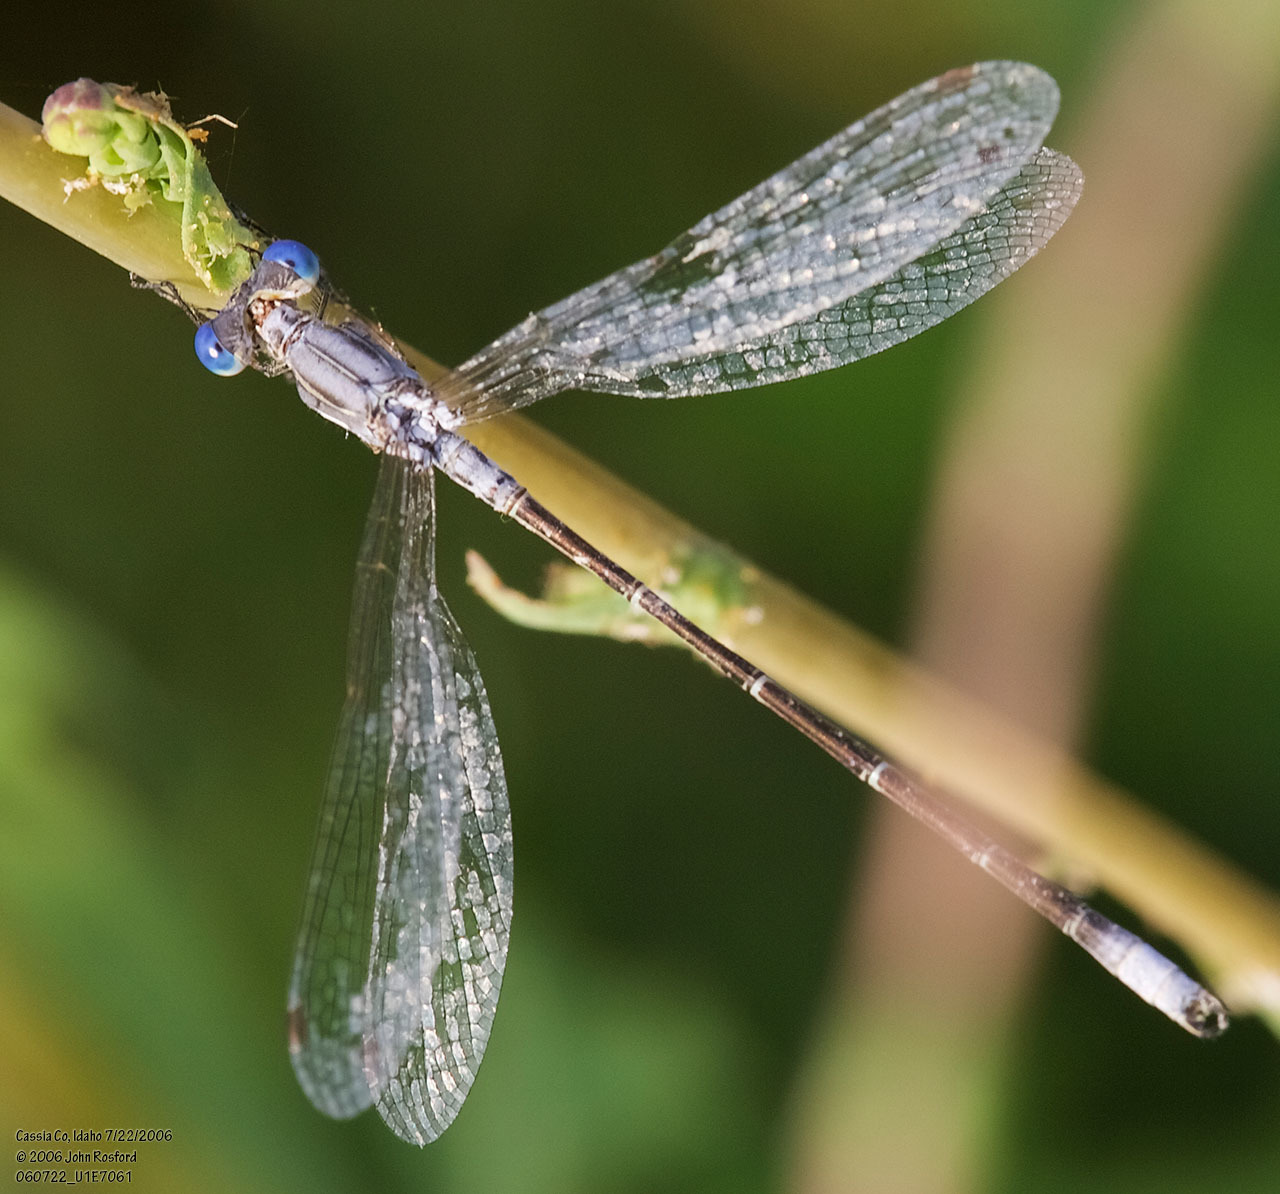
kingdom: Animalia
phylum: Arthropoda
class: Insecta
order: Odonata
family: Lestidae
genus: Lestes
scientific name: Lestes congener
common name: Spotted spreadwing
